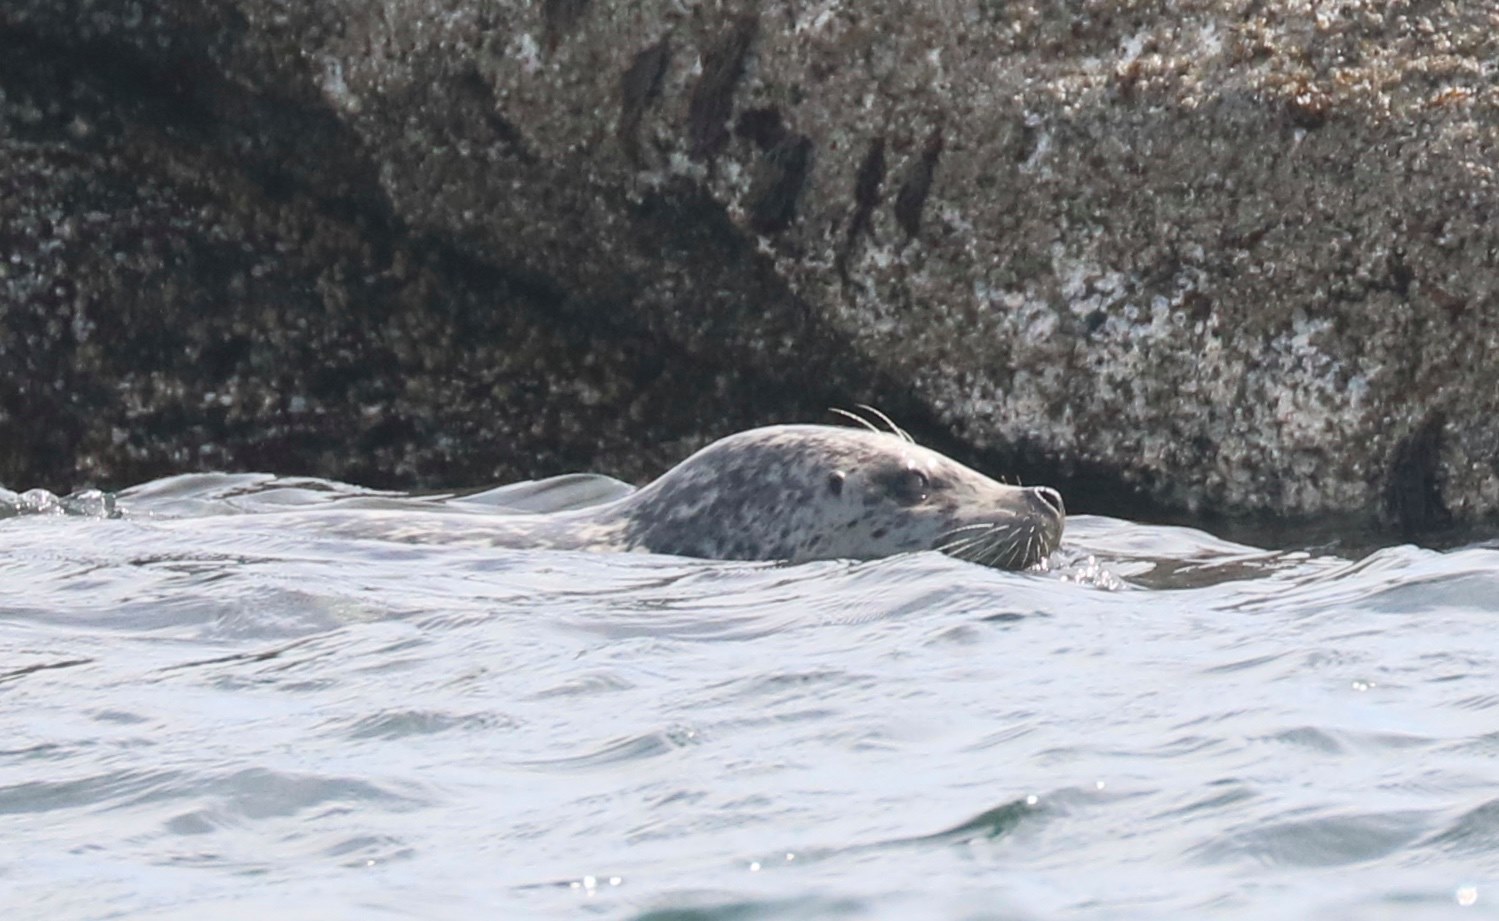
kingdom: Animalia
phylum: Chordata
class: Mammalia
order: Carnivora
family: Phocidae
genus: Phoca
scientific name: Phoca vitulina
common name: Harbor seal
